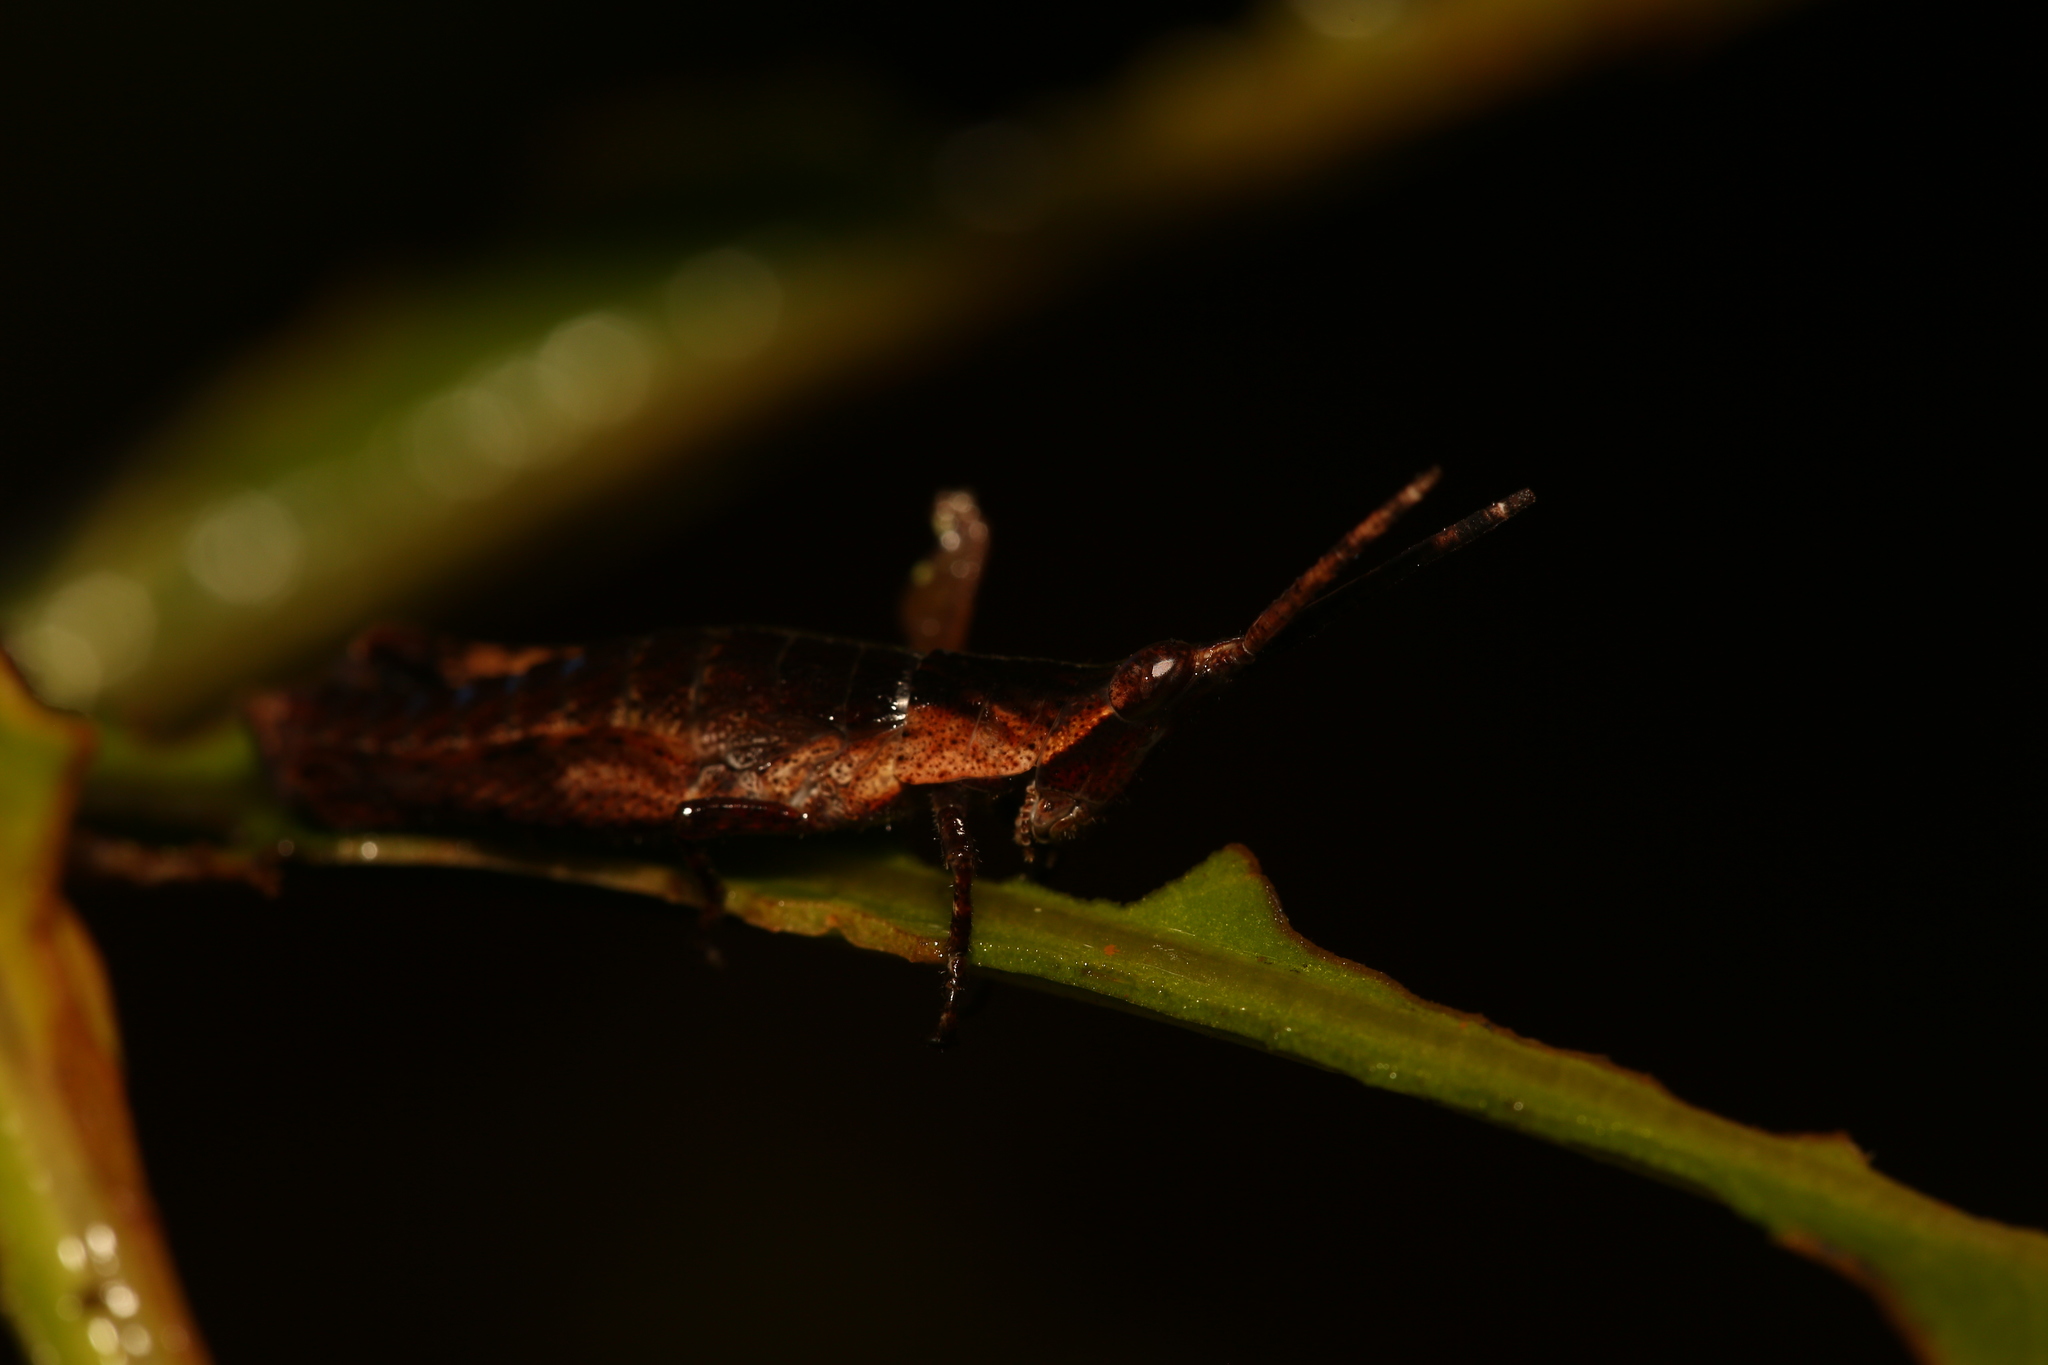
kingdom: Animalia
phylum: Arthropoda
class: Insecta
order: Orthoptera
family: Pyrgomorphidae
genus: Nerenia
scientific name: Nerenia francoisi
